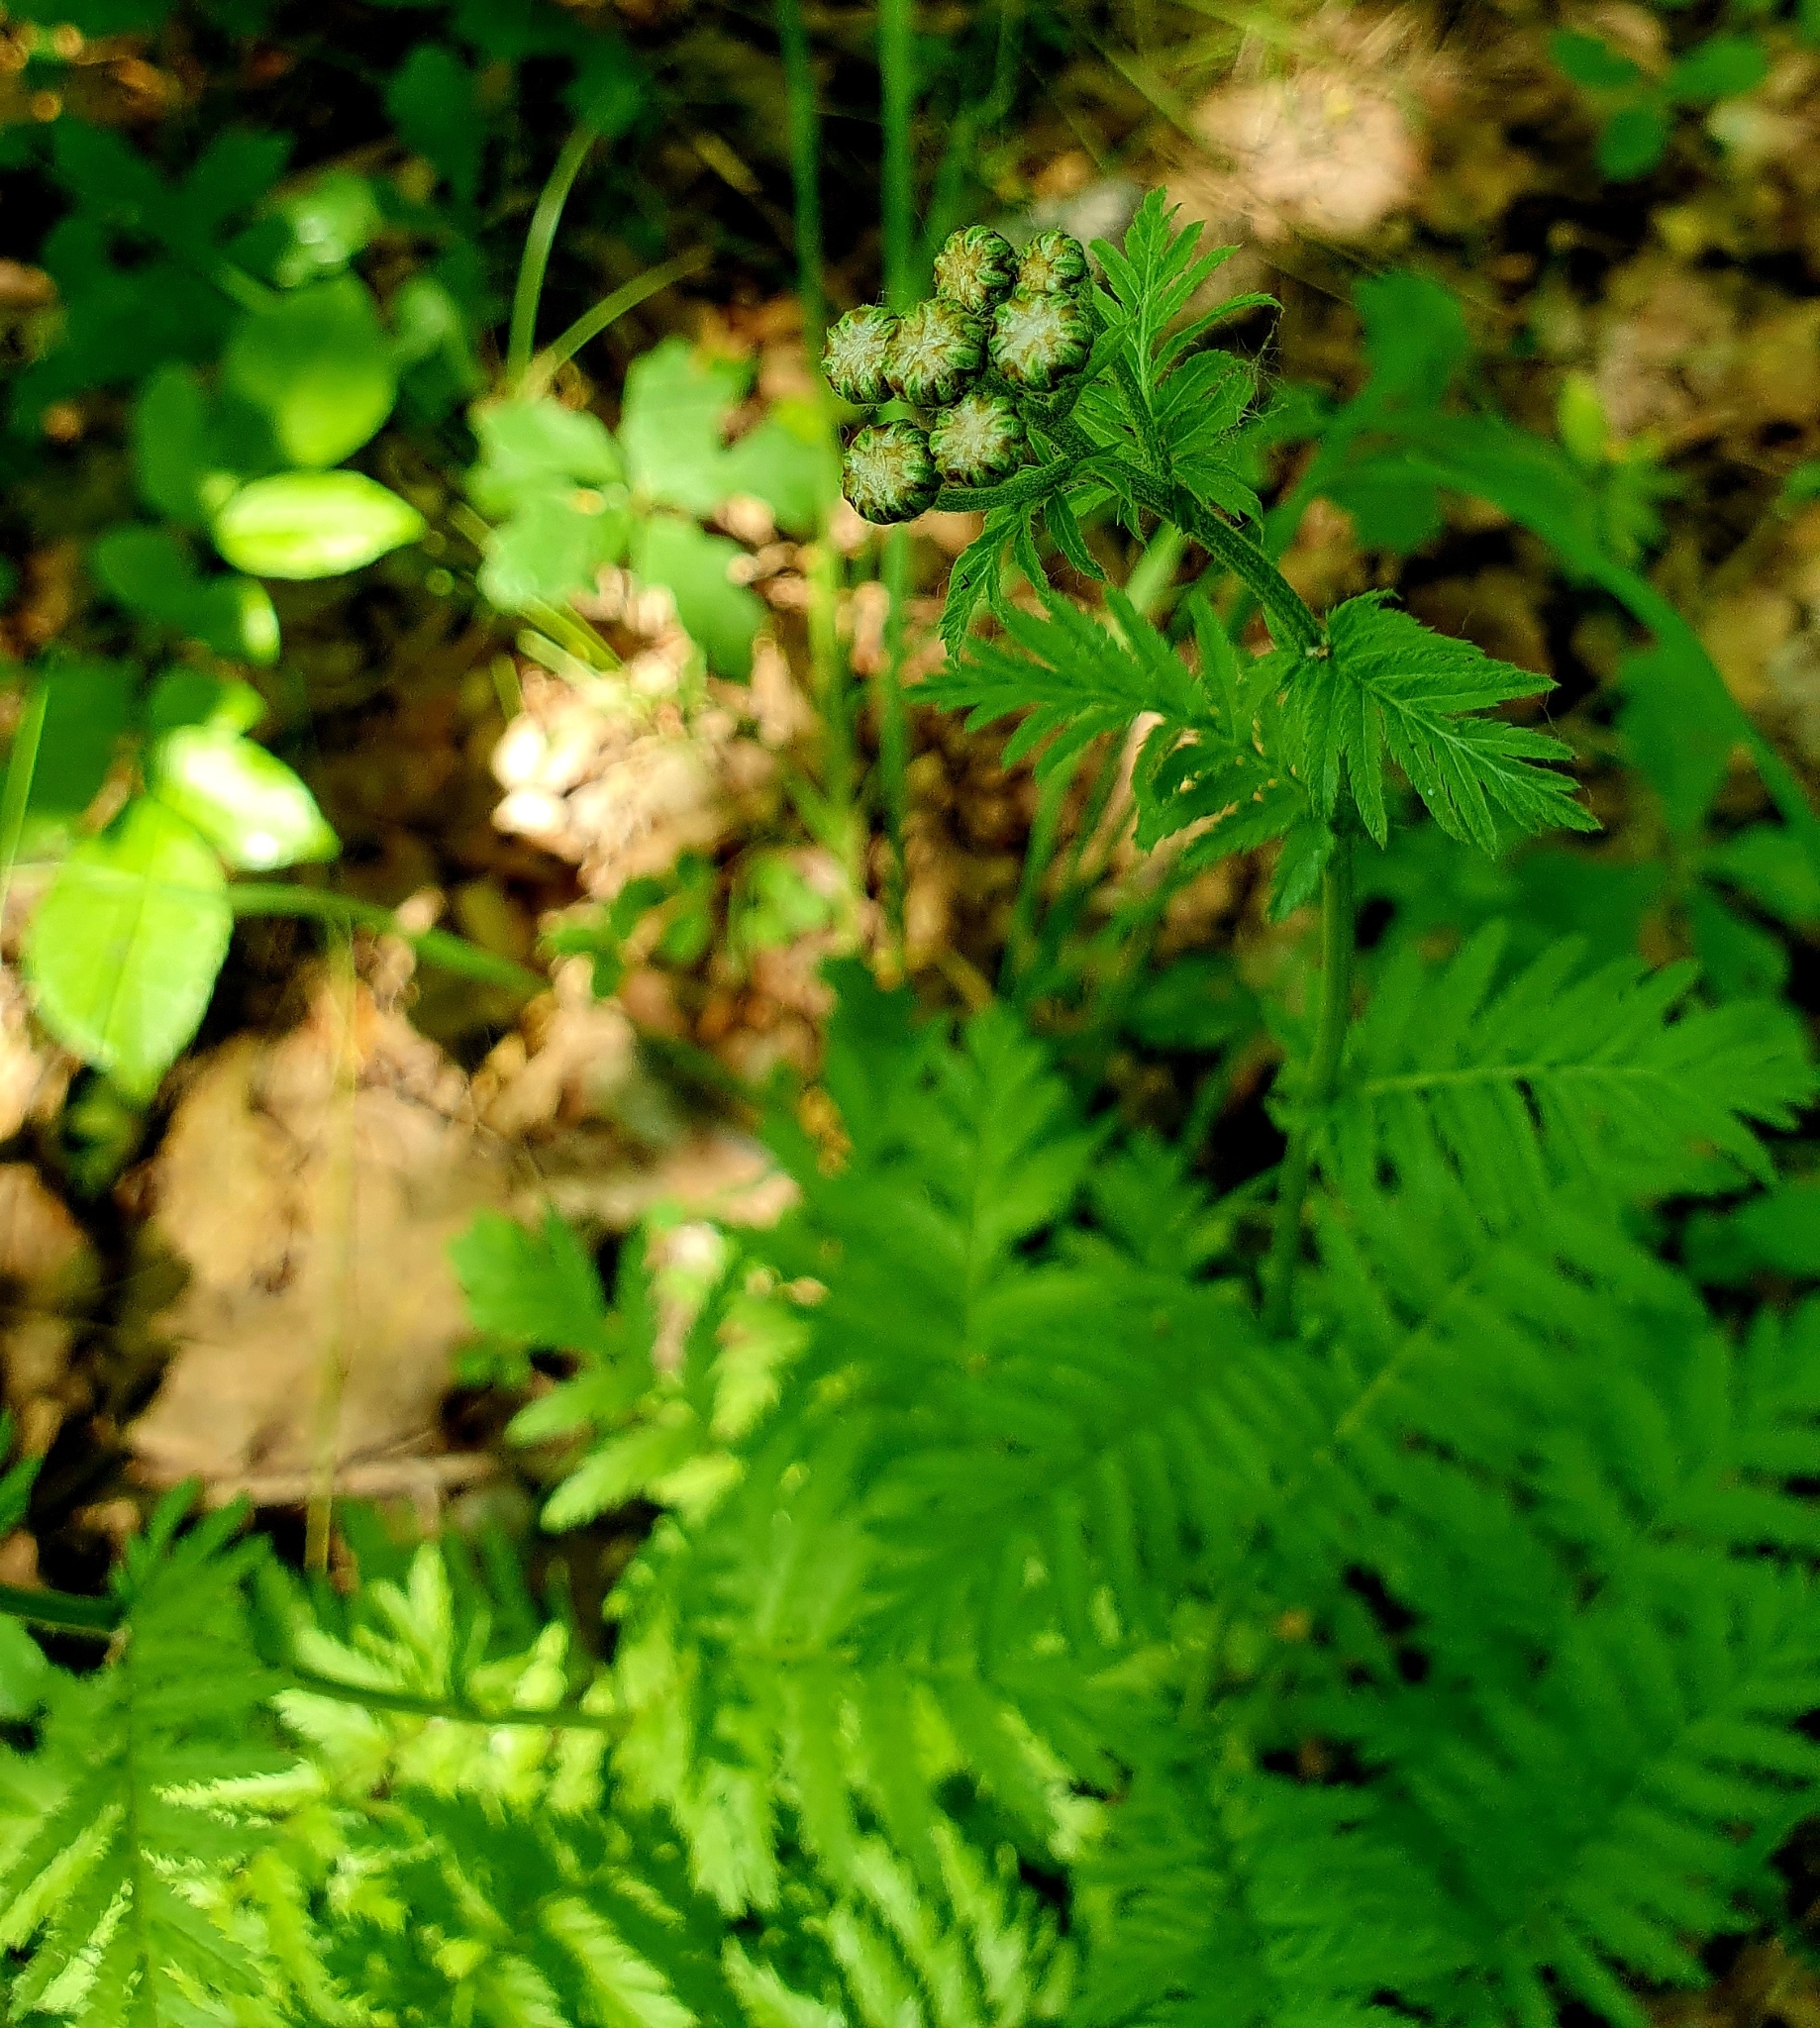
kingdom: Plantae
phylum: Tracheophyta
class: Magnoliopsida
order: Asterales
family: Asteraceae
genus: Tanacetum
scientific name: Tanacetum corymbosum
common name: Scentless feverfew
